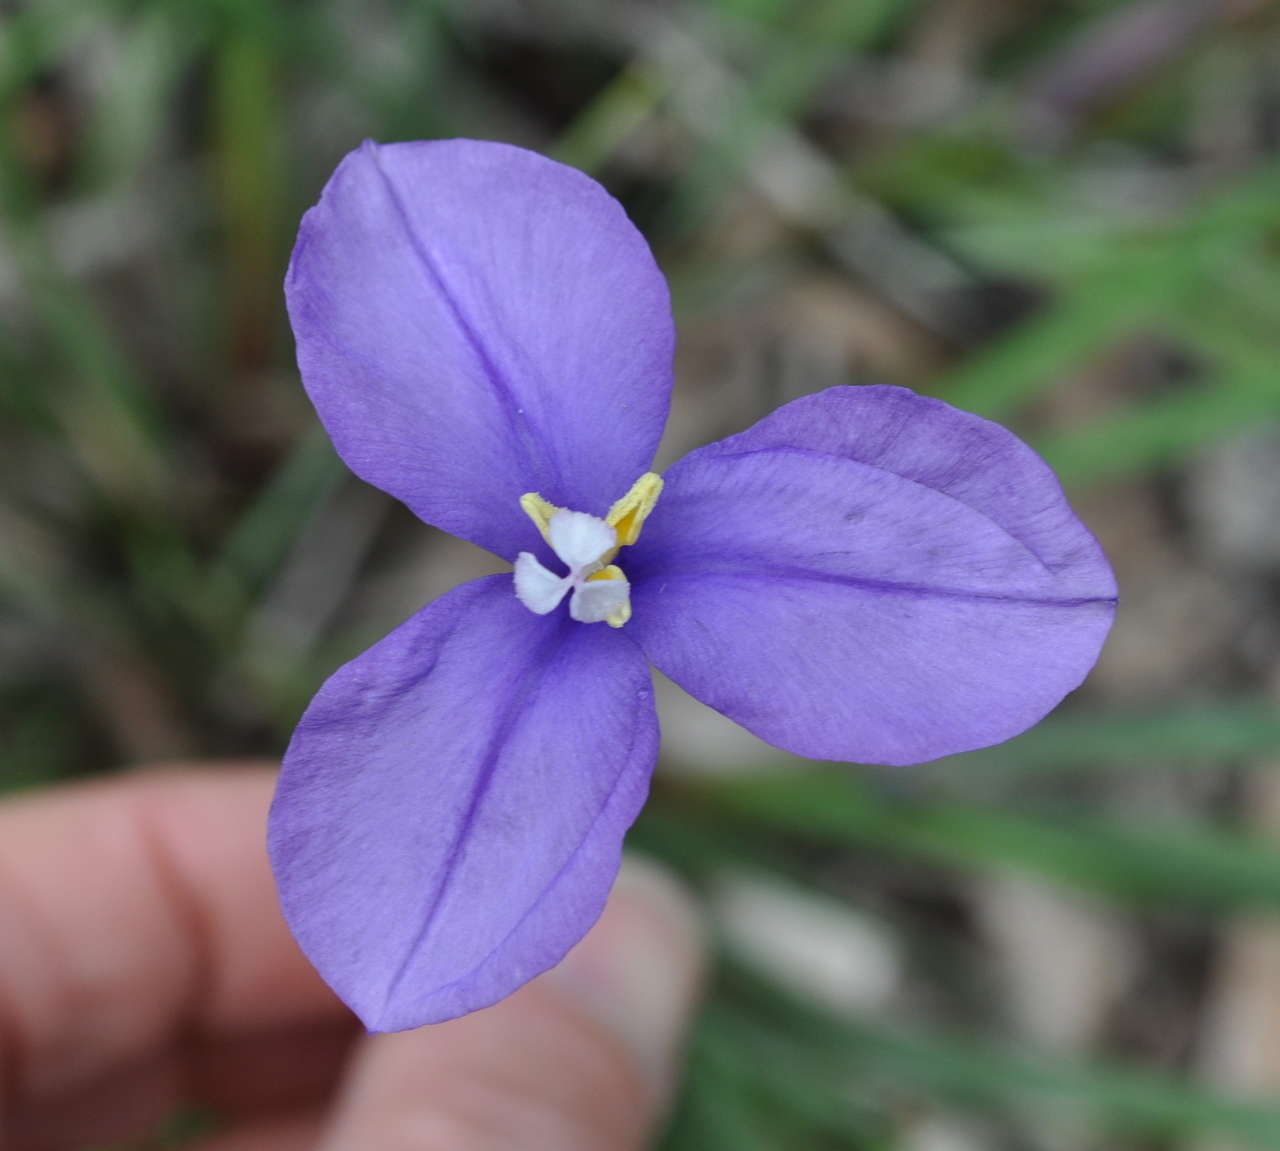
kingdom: Plantae
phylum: Tracheophyta
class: Liliopsida
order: Asparagales
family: Iridaceae
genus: Patersonia
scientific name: Patersonia occidentalis
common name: Long purple-flag
